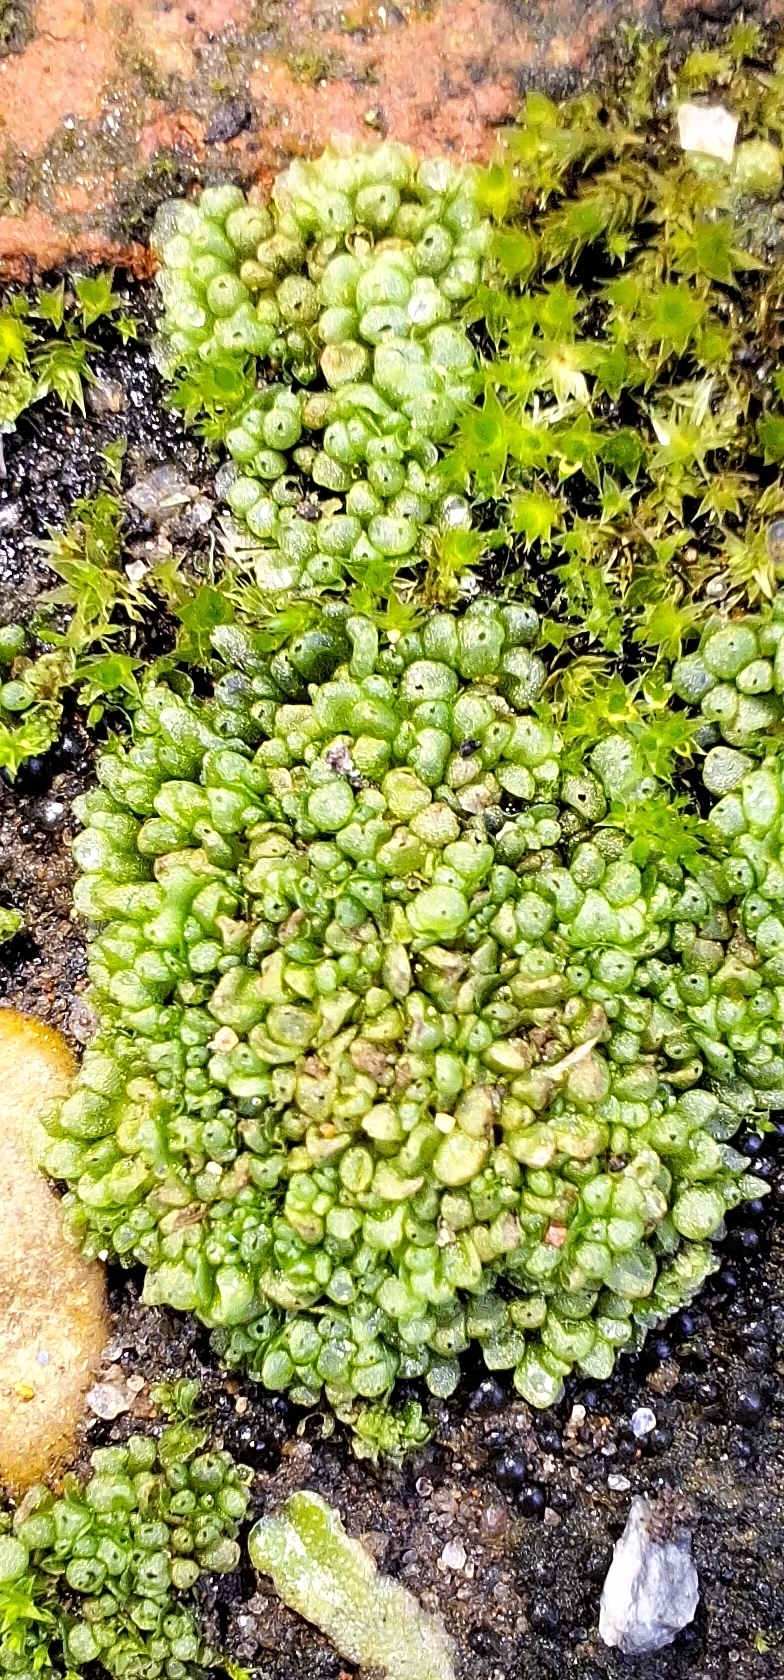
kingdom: Plantae
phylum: Marchantiophyta
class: Marchantiopsida
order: Sphaerocarpales
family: Sphaerocarpaceae
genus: Sphaerocarpos
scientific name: Sphaerocarpos texanus
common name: Texas balloonwort
